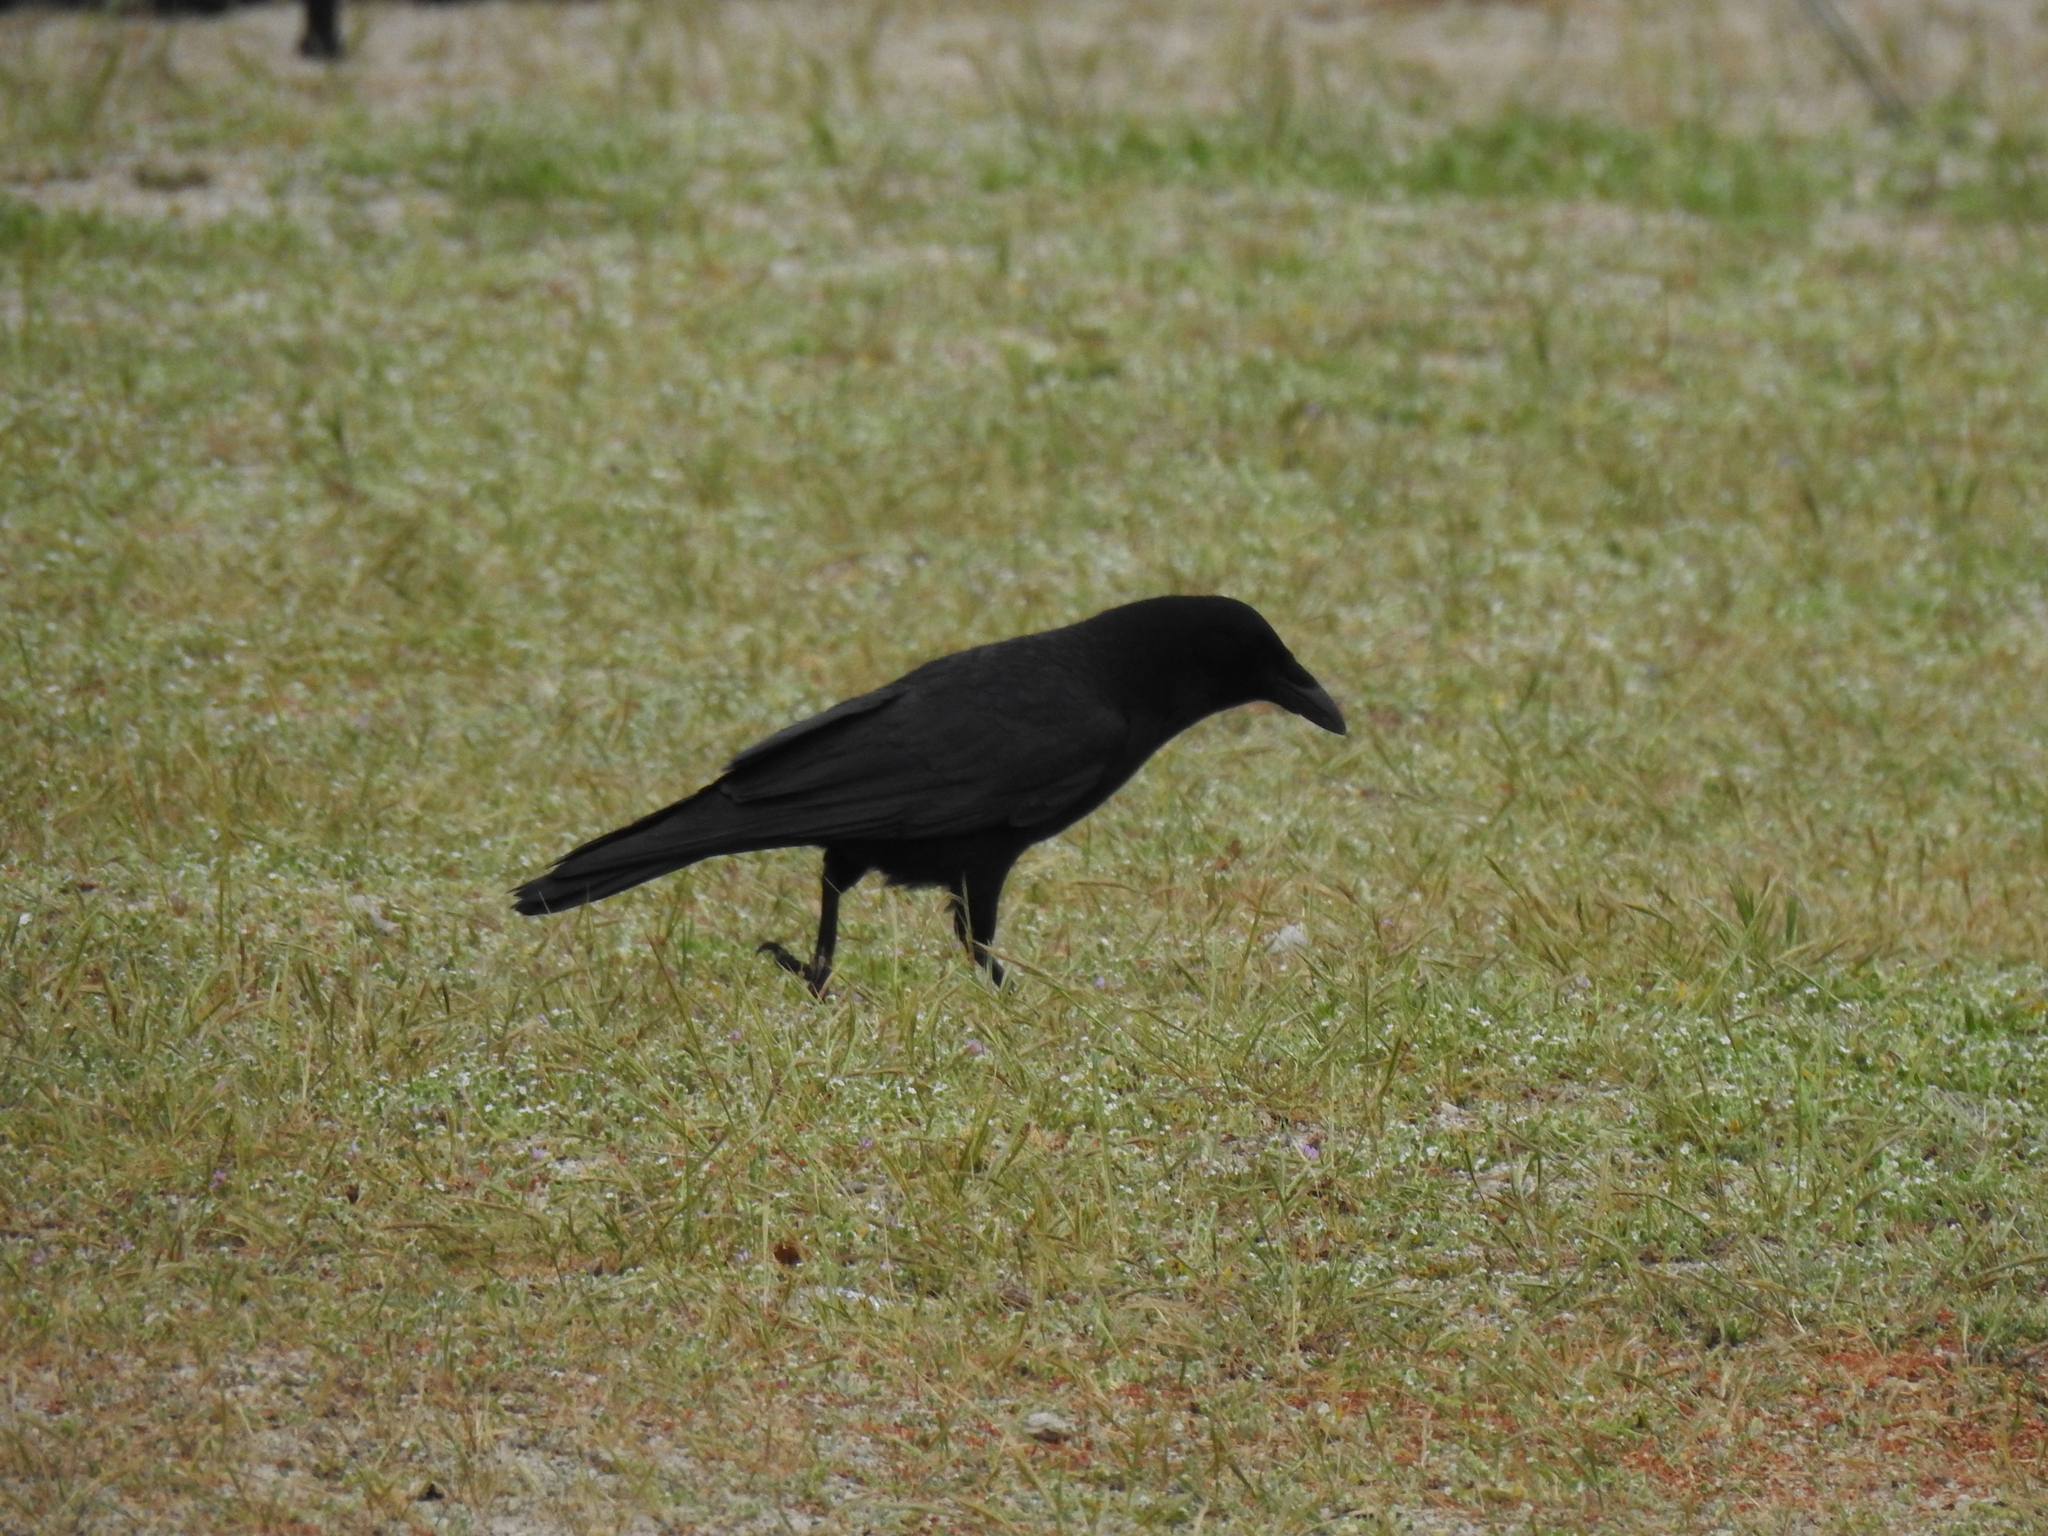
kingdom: Animalia
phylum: Chordata
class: Aves
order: Passeriformes
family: Corvidae
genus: Corvus
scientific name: Corvus brachyrhynchos
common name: American crow
